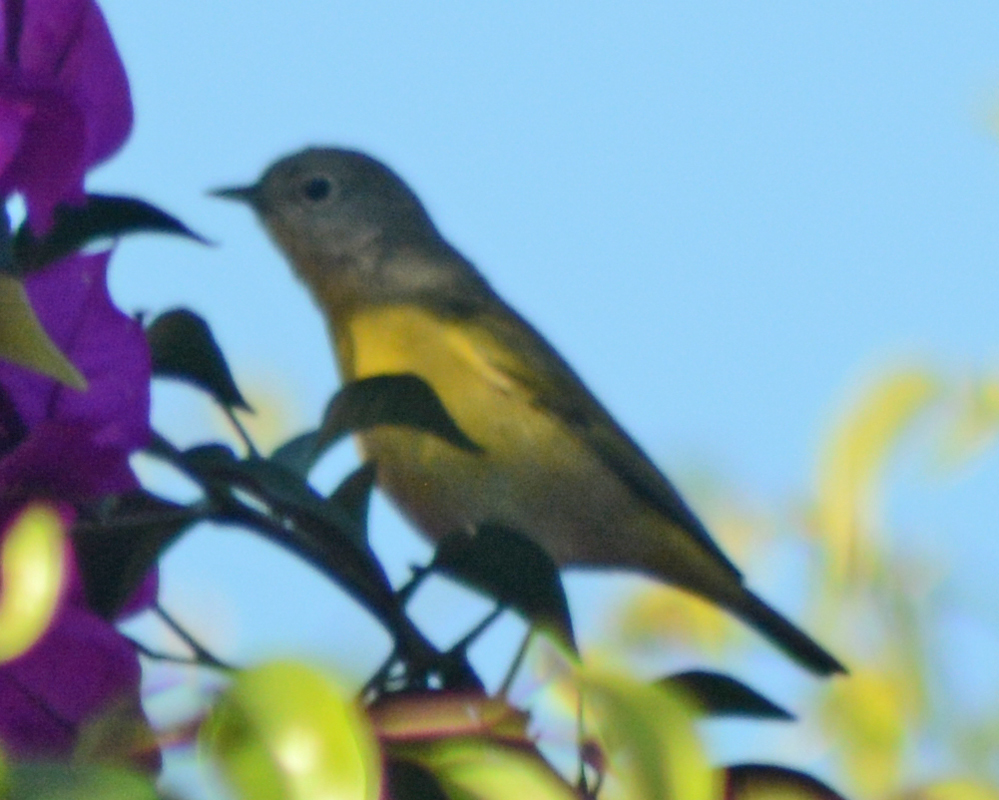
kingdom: Animalia
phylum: Chordata
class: Aves
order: Passeriformes
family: Parulidae
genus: Leiothlypis
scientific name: Leiothlypis ruficapilla
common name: Nashville warbler
